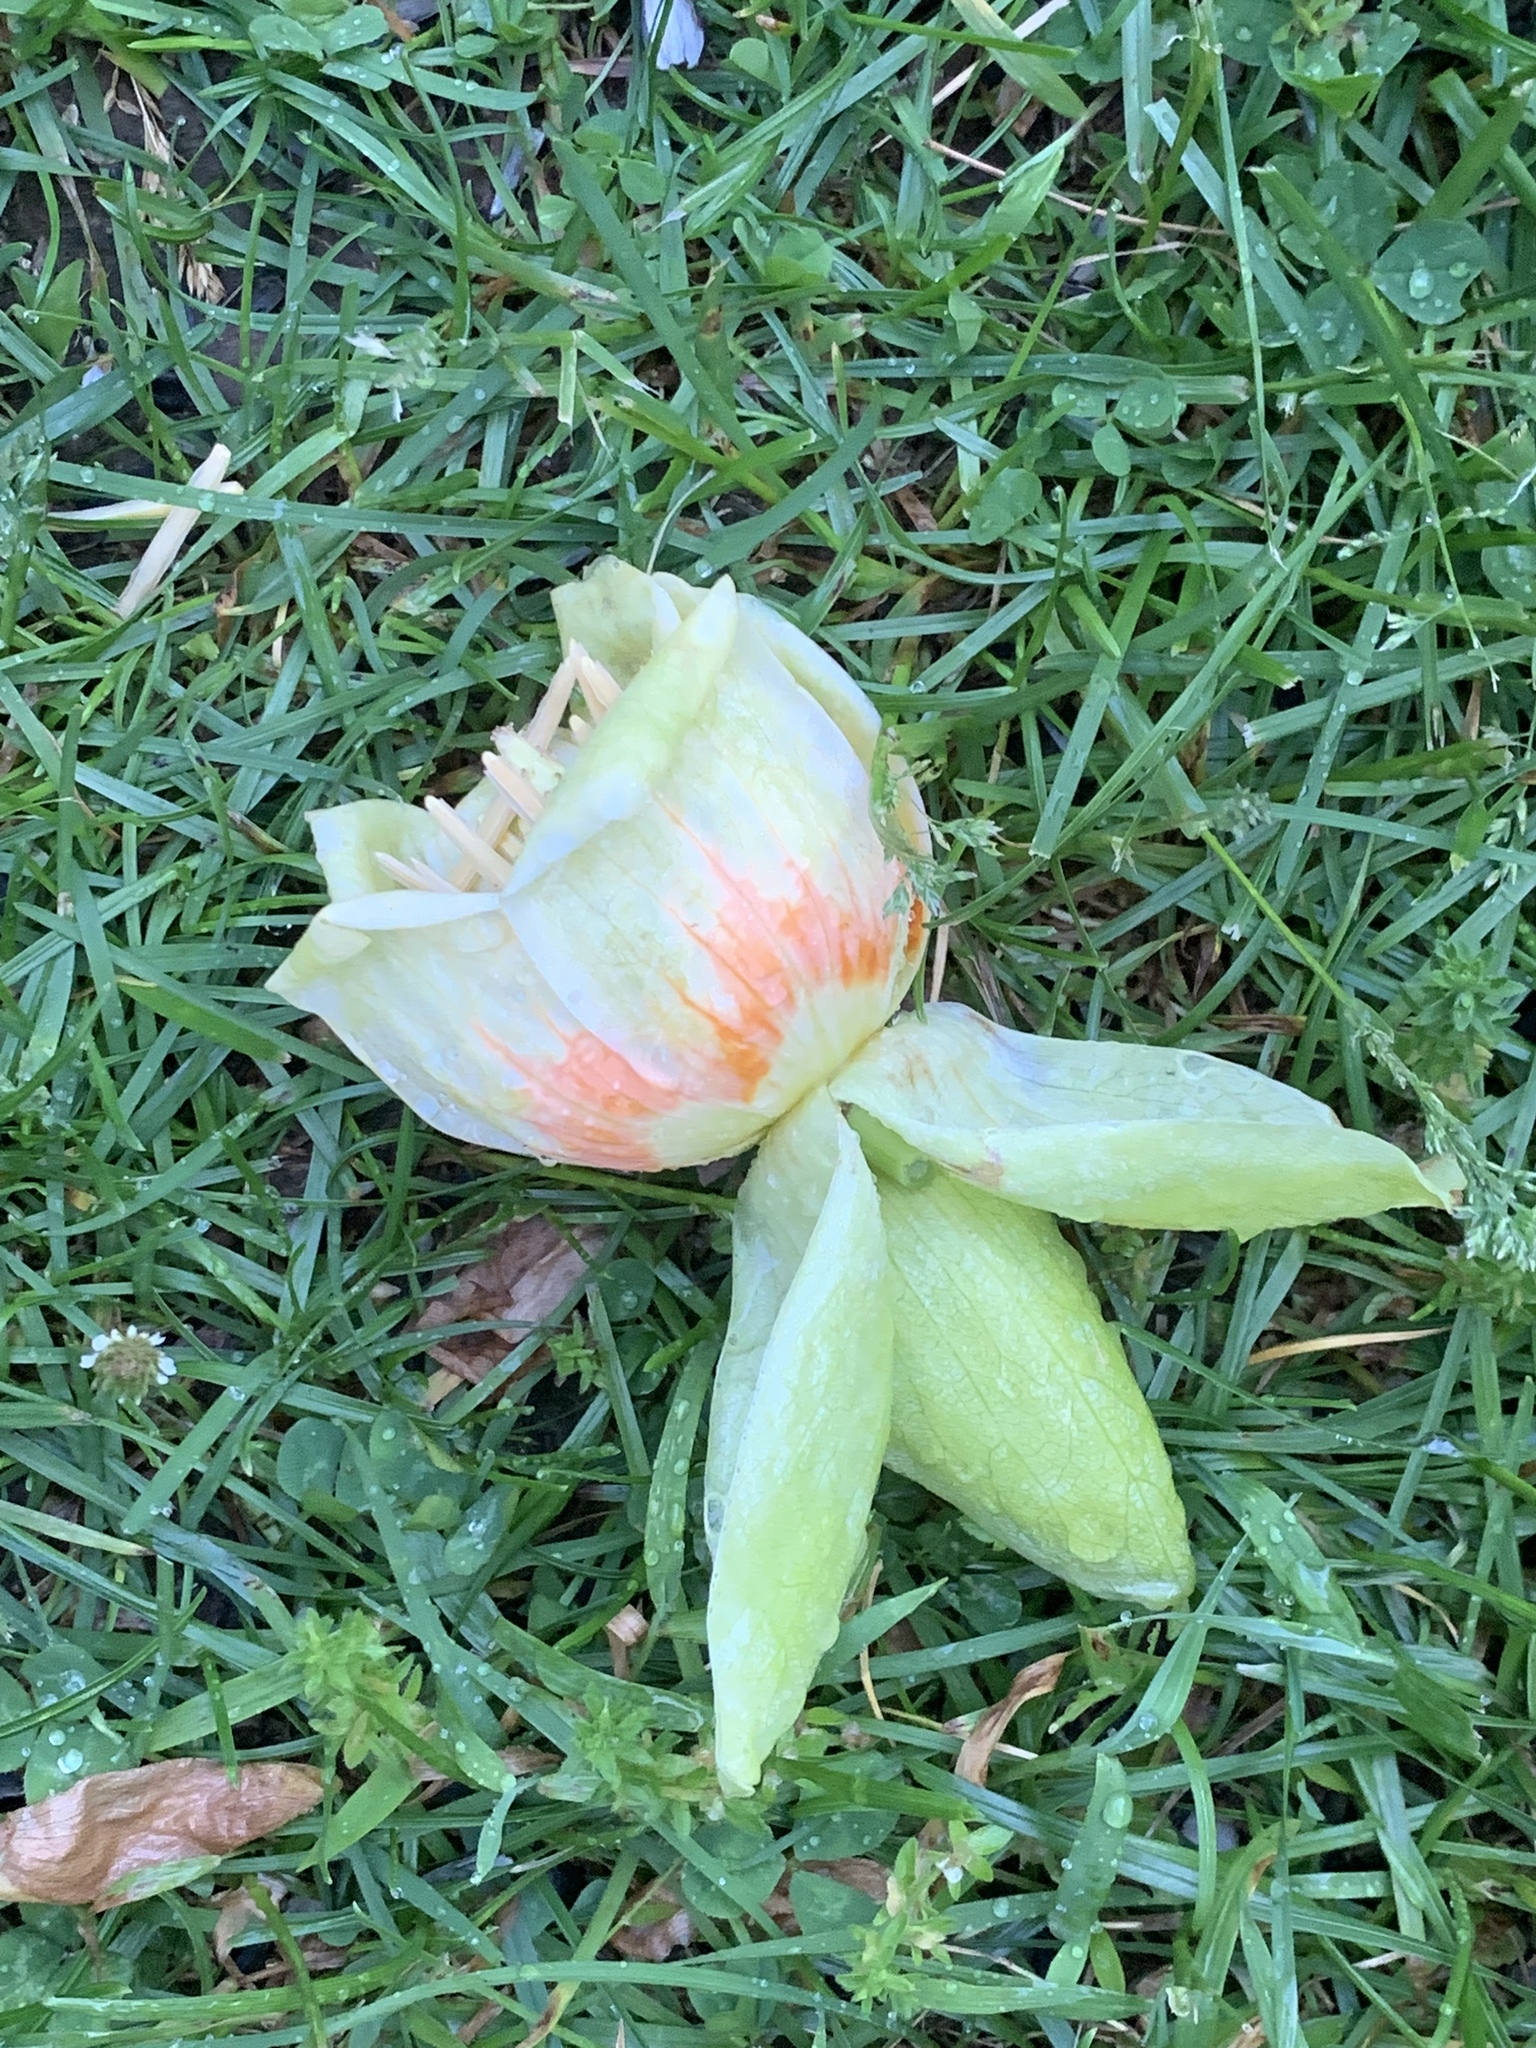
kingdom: Plantae
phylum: Tracheophyta
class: Magnoliopsida
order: Magnoliales
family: Magnoliaceae
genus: Liriodendron
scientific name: Liriodendron tulipifera
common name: Tulip tree
